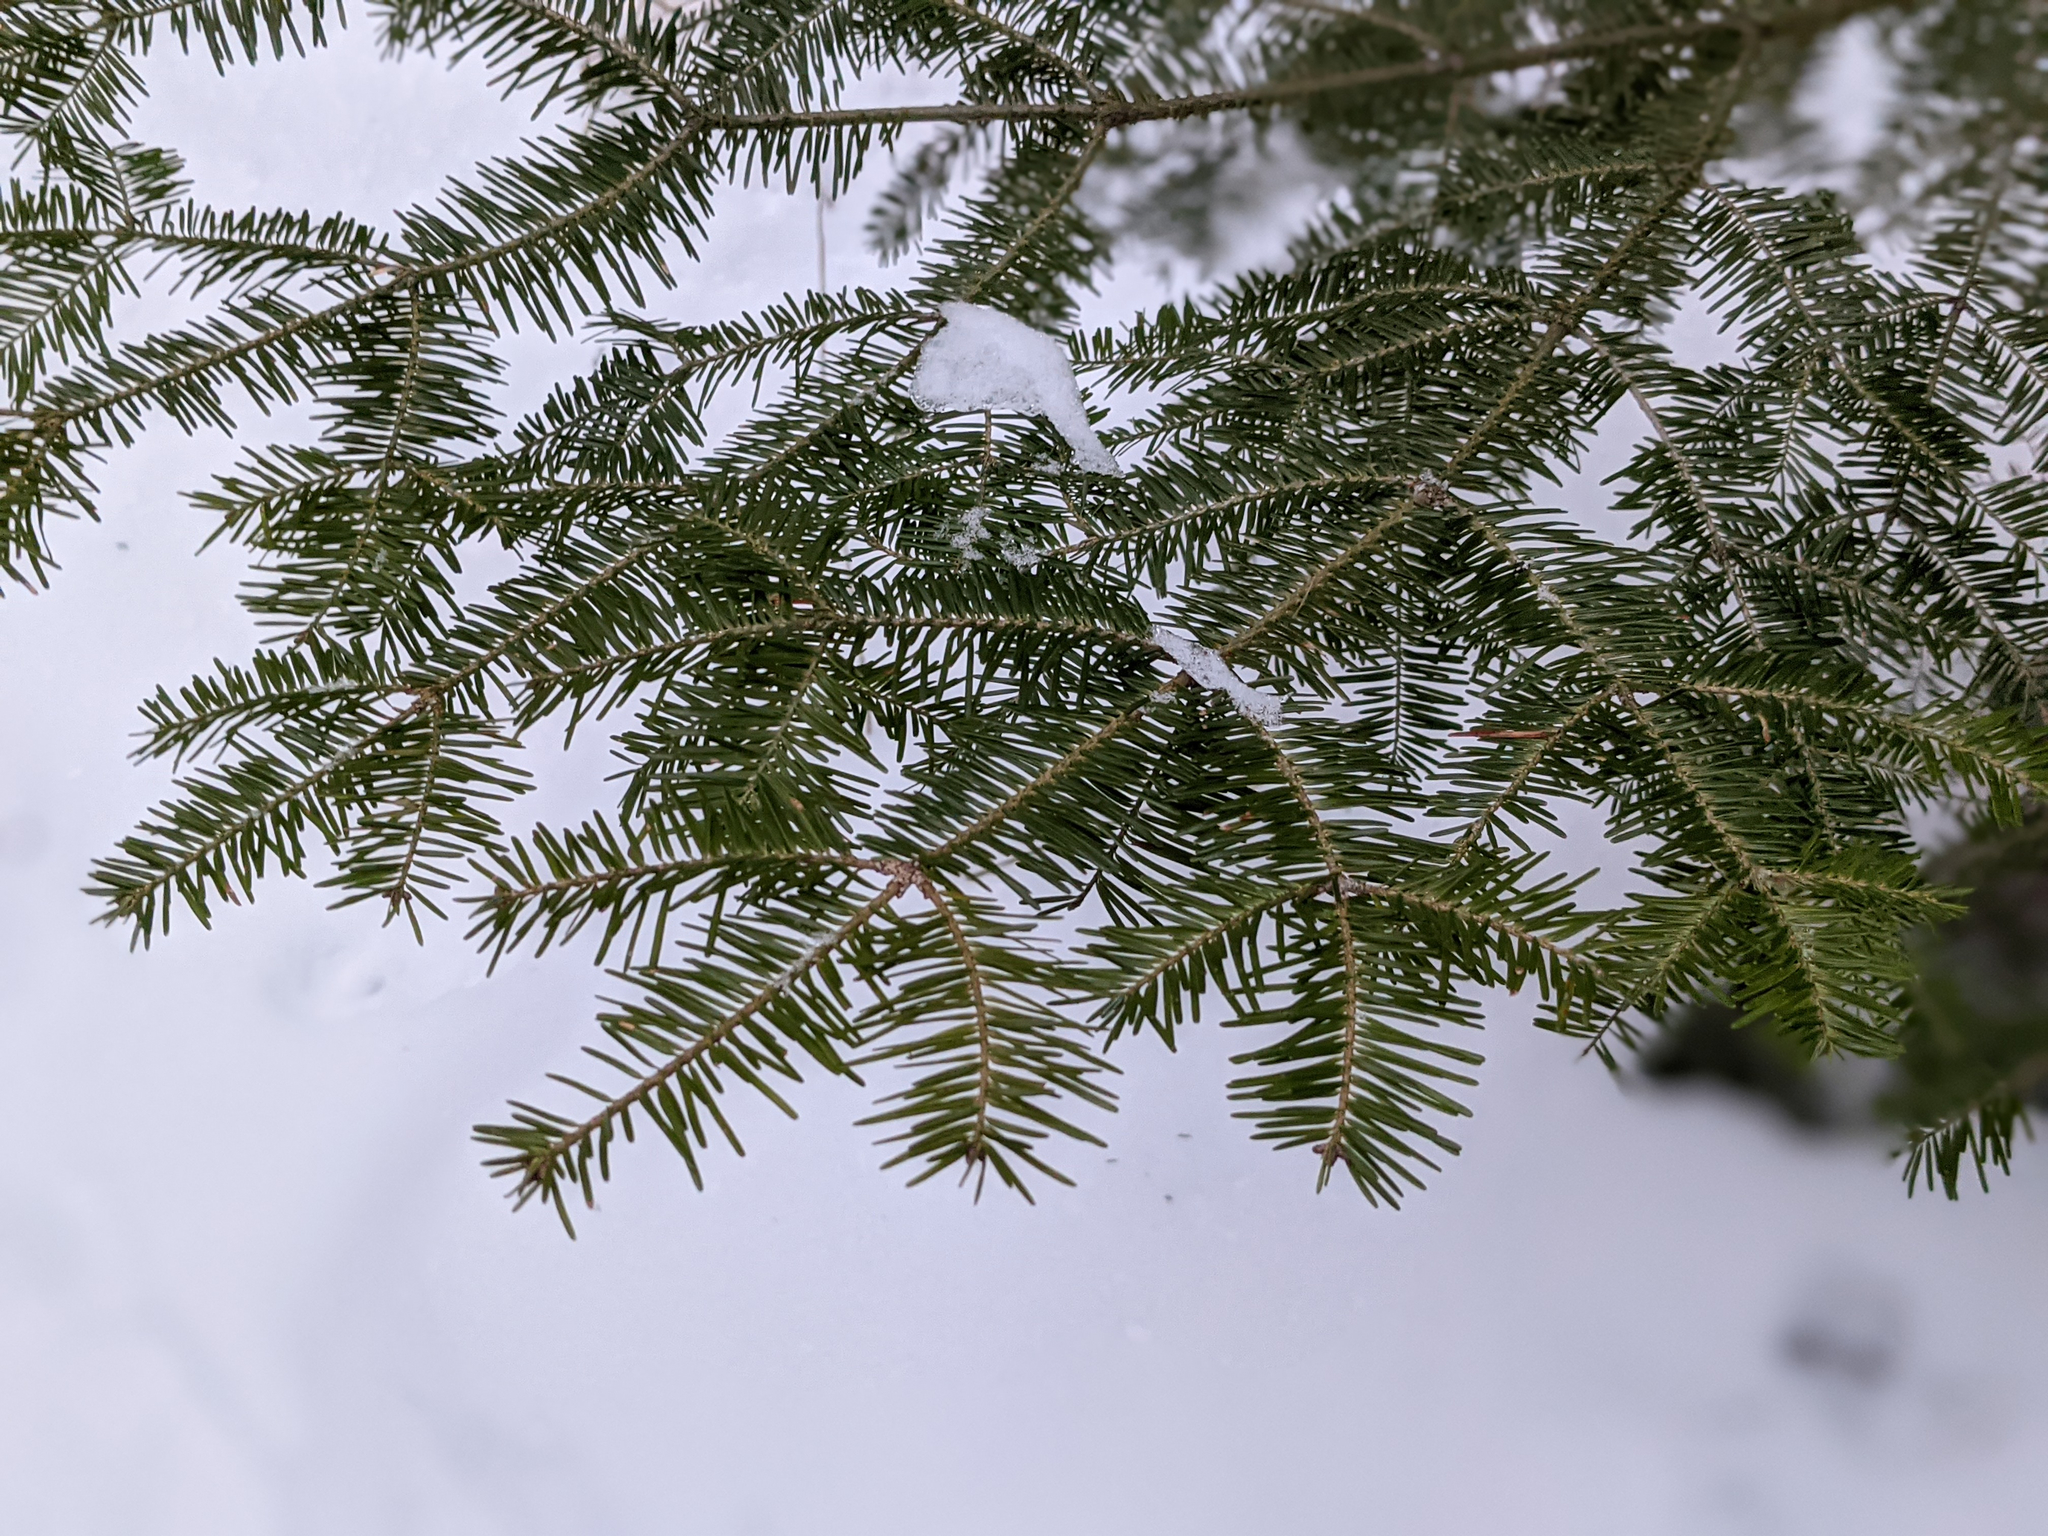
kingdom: Plantae
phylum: Tracheophyta
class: Pinopsida
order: Pinales
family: Pinaceae
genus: Abies
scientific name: Abies balsamea
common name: Balsam fir
